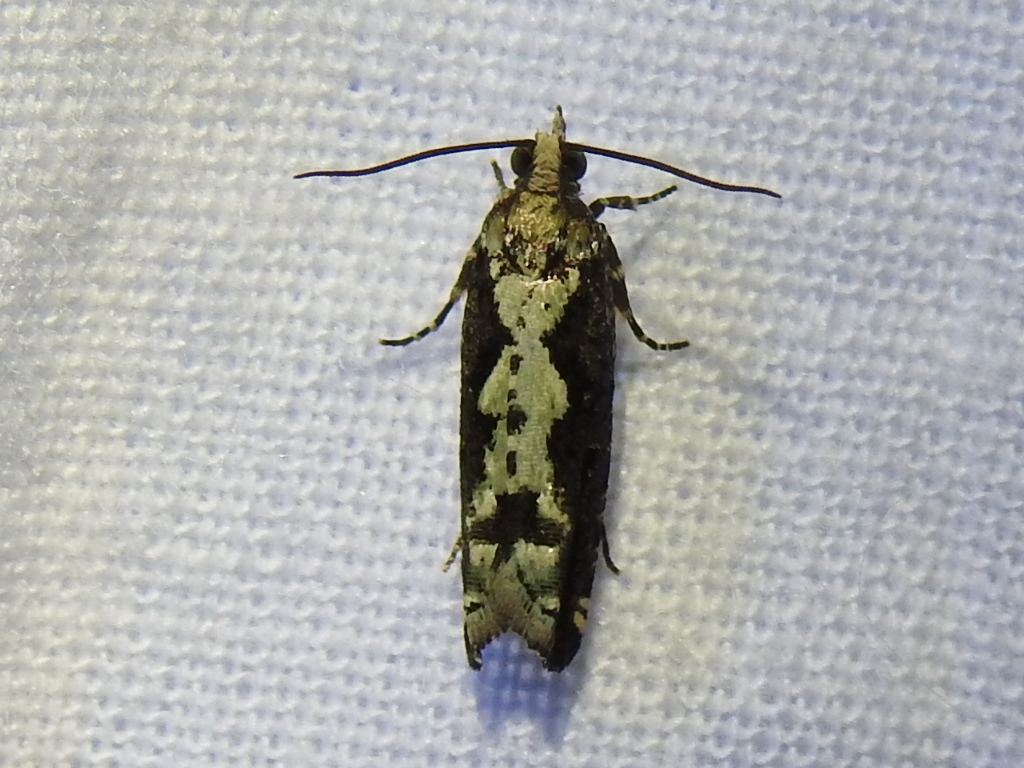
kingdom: Animalia
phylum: Arthropoda
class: Insecta
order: Lepidoptera
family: Tortricidae
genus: Chimoptesis
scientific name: Chimoptesis pennsylvaniana
